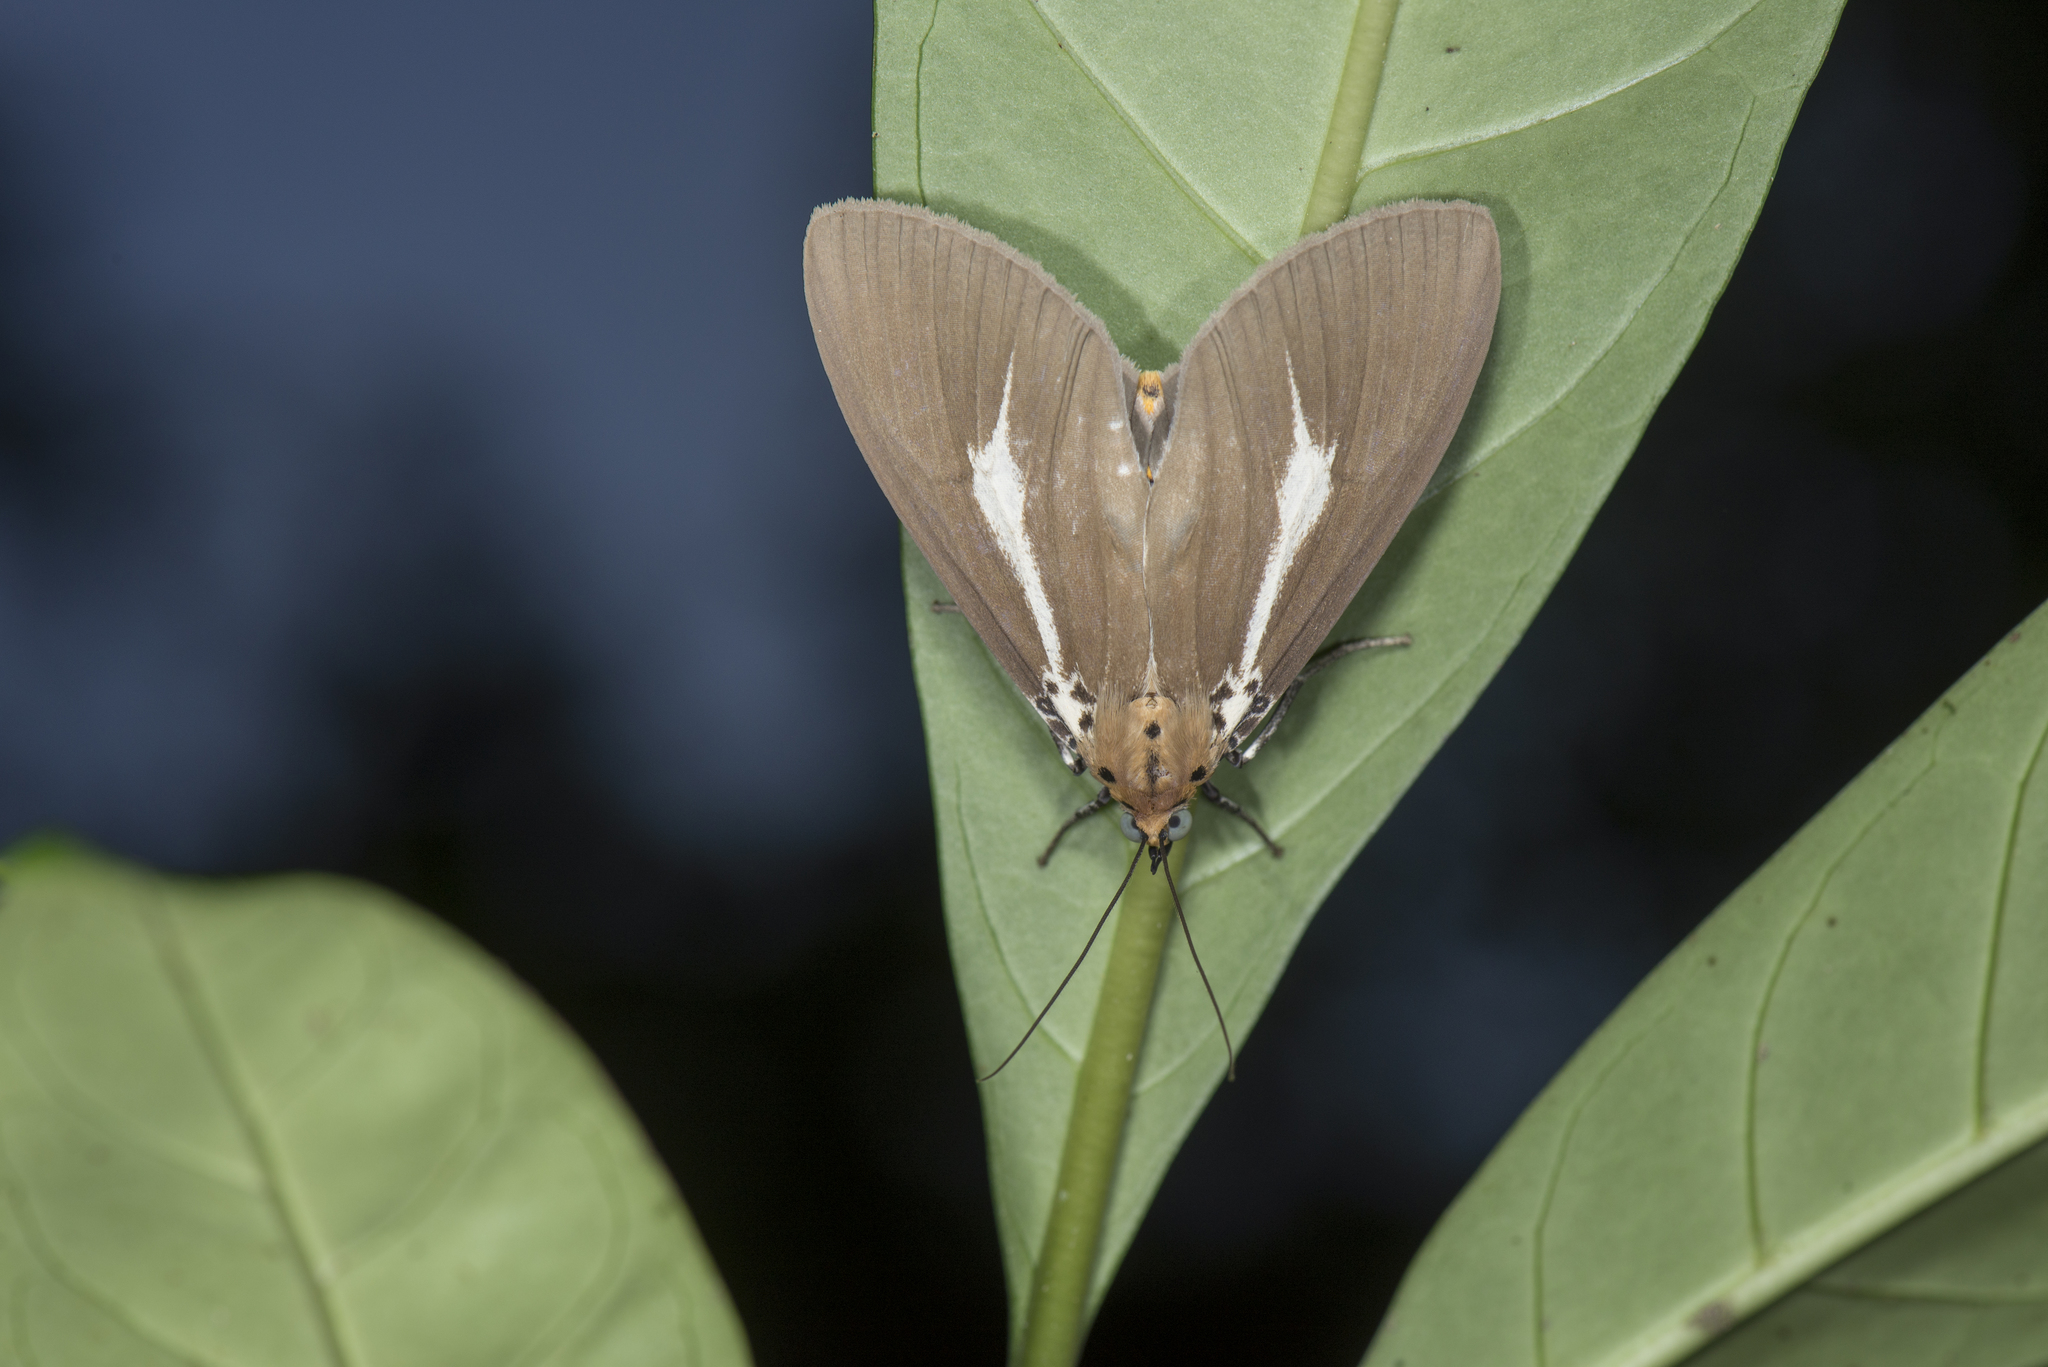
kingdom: Animalia
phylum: Arthropoda
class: Insecta
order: Lepidoptera
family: Erebidae
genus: Asota
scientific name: Asota heliconia
